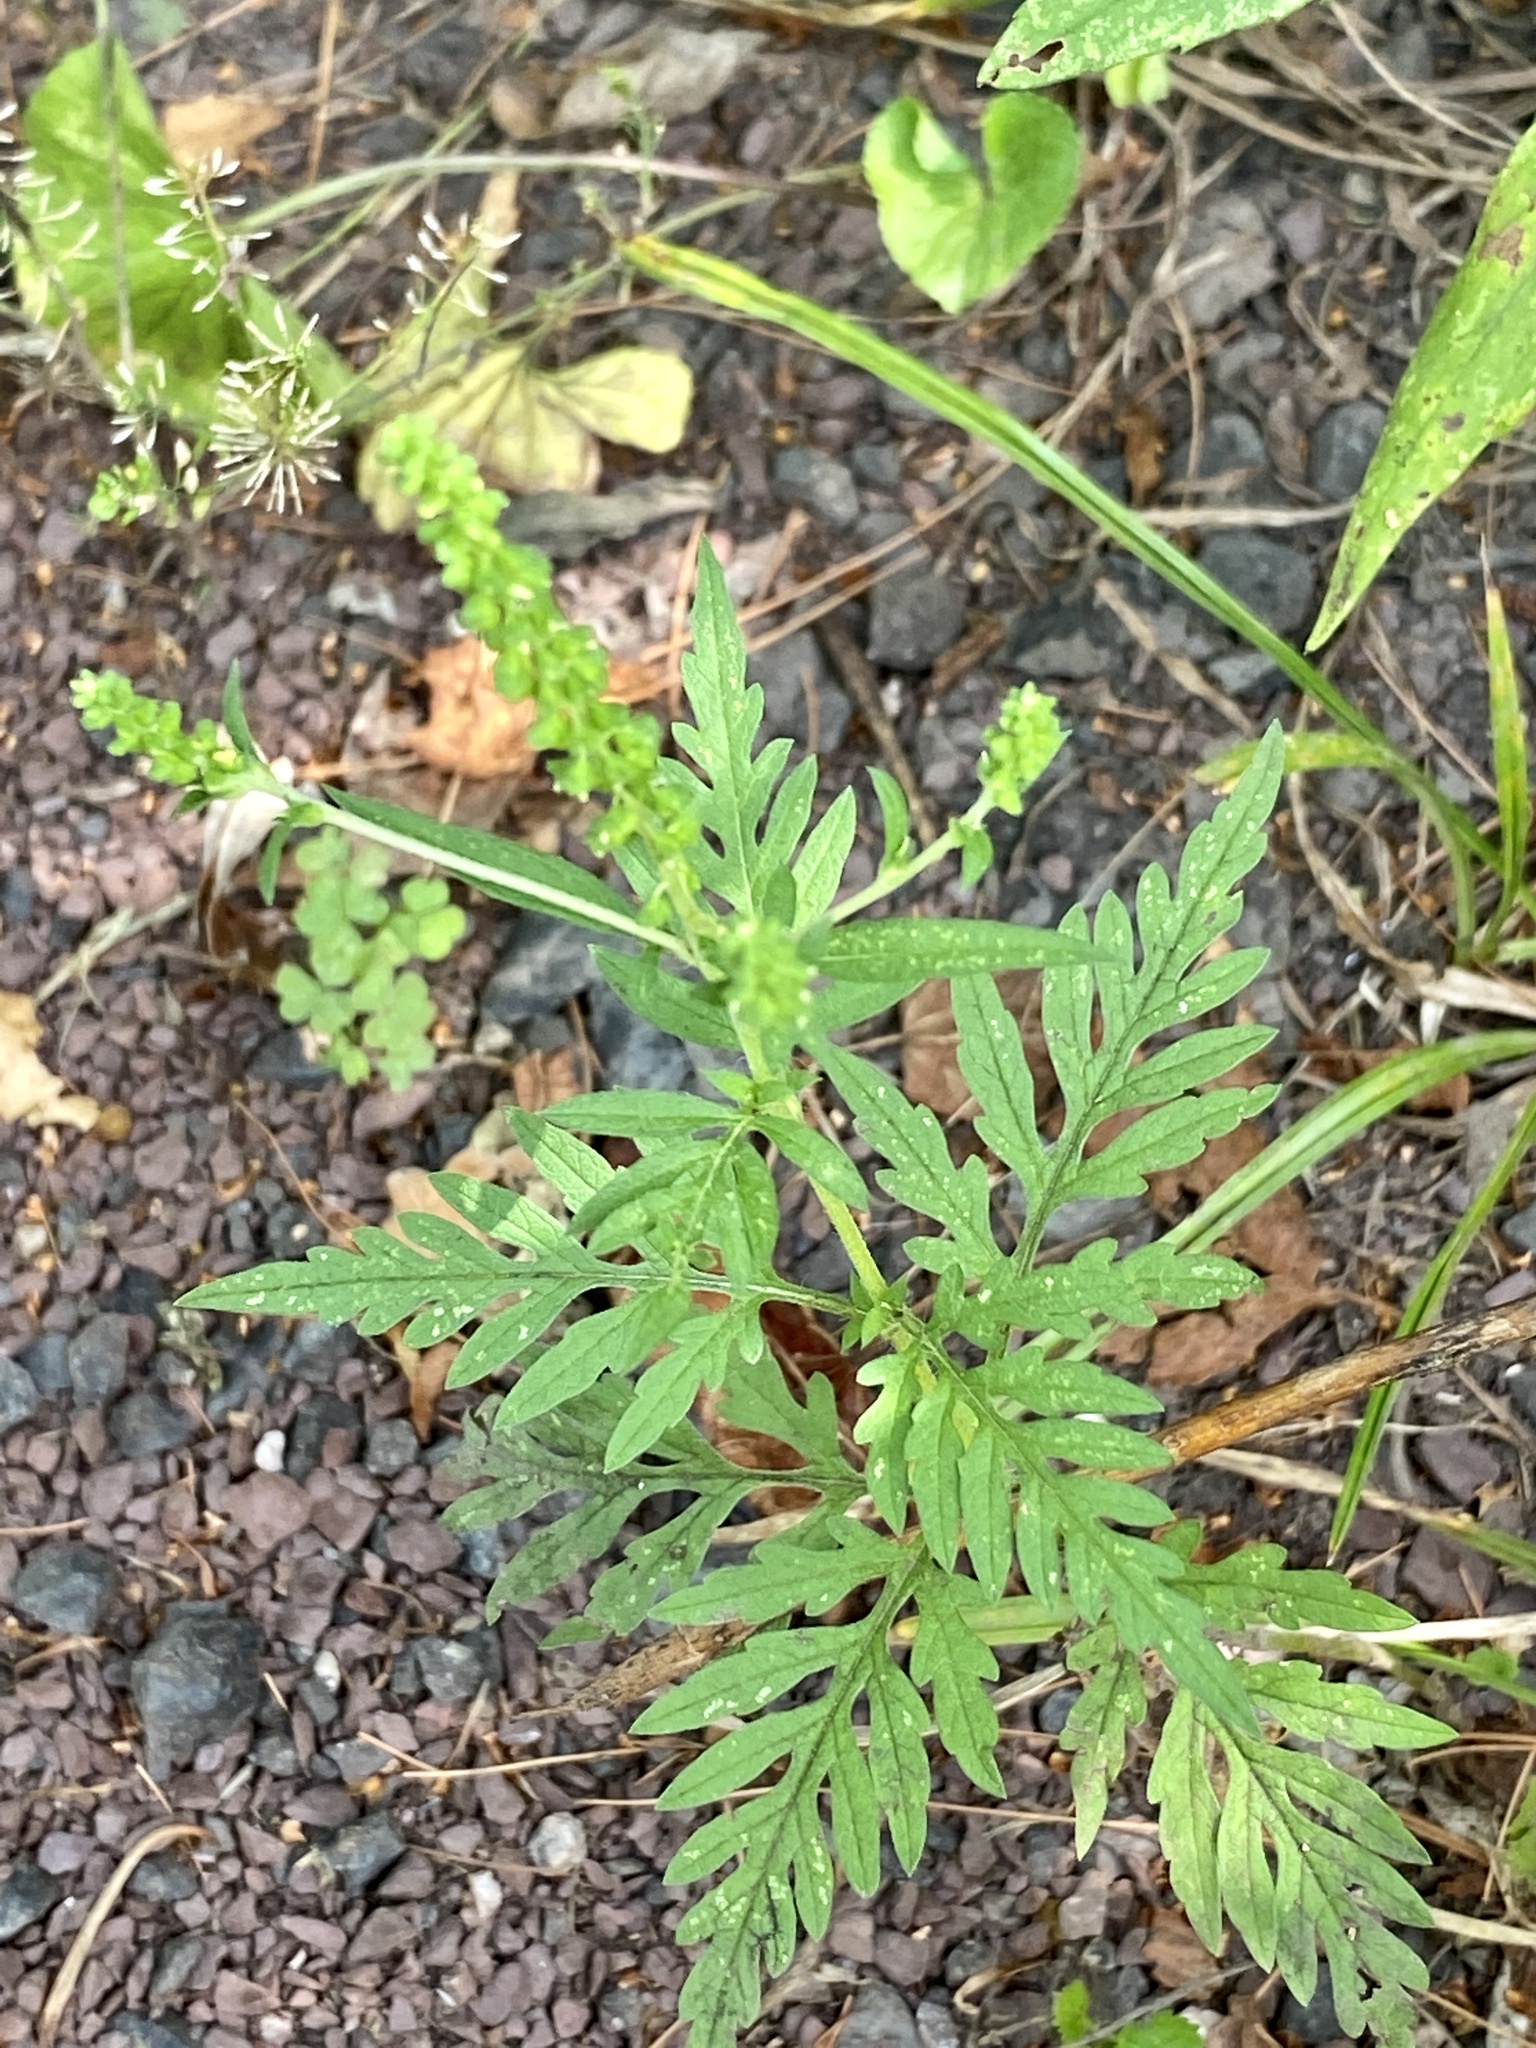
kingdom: Plantae
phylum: Tracheophyta
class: Magnoliopsida
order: Asterales
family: Asteraceae
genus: Ambrosia
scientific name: Ambrosia artemisiifolia
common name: Annual ragweed
